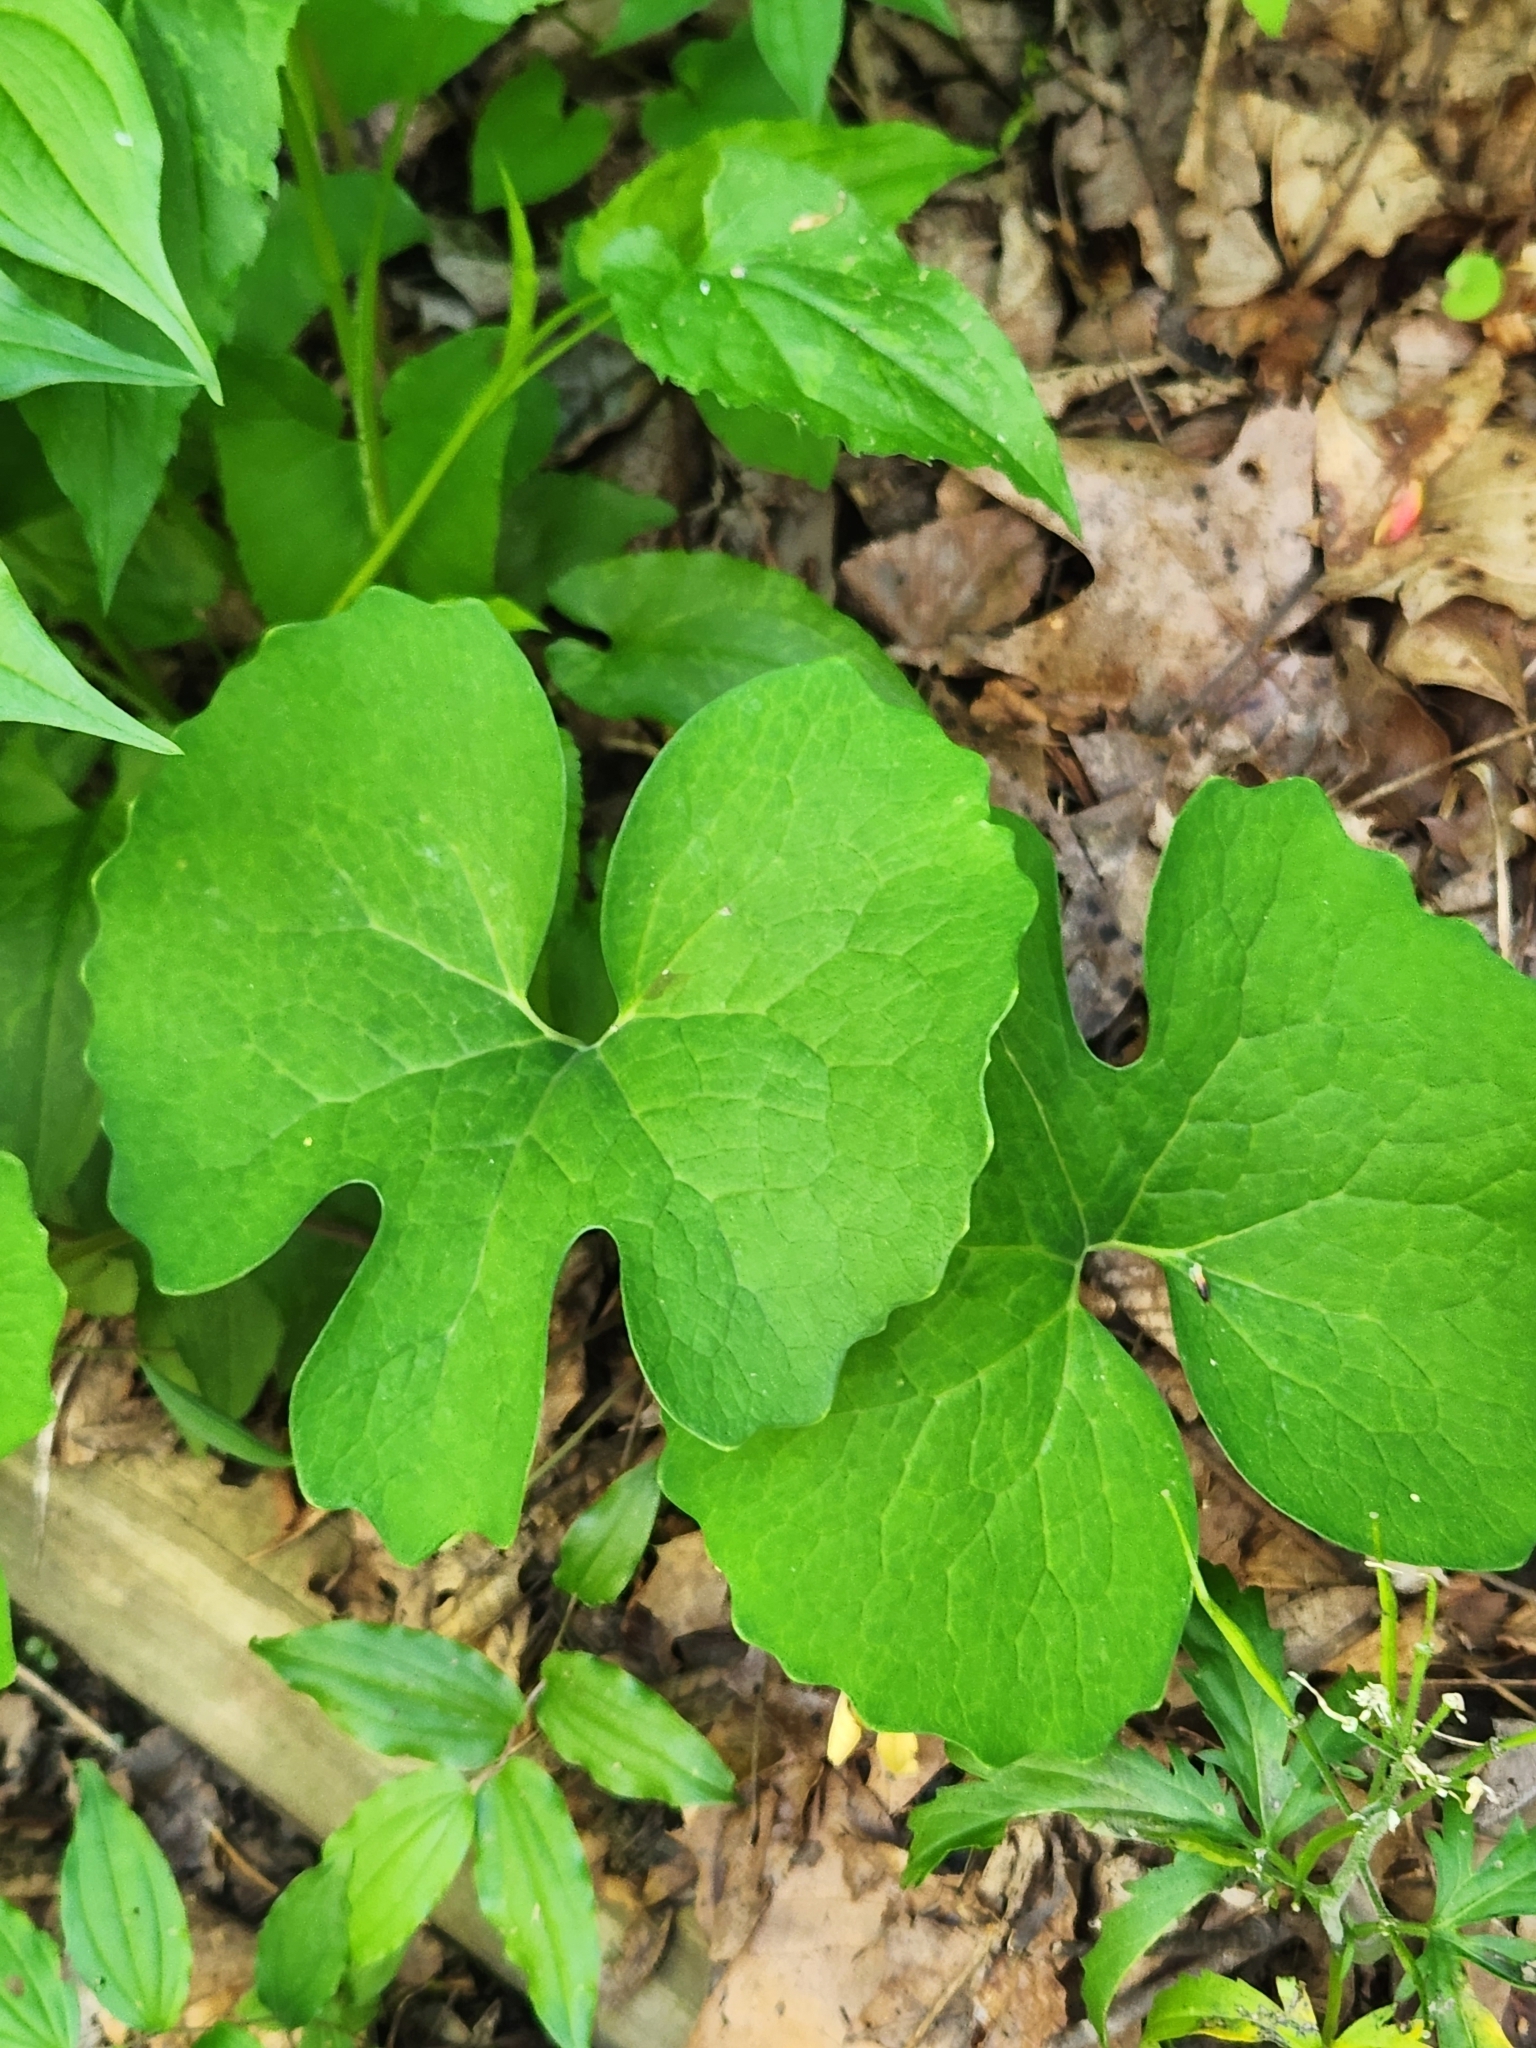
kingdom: Plantae
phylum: Tracheophyta
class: Magnoliopsida
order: Ranunculales
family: Papaveraceae
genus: Sanguinaria
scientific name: Sanguinaria canadensis
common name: Bloodroot
